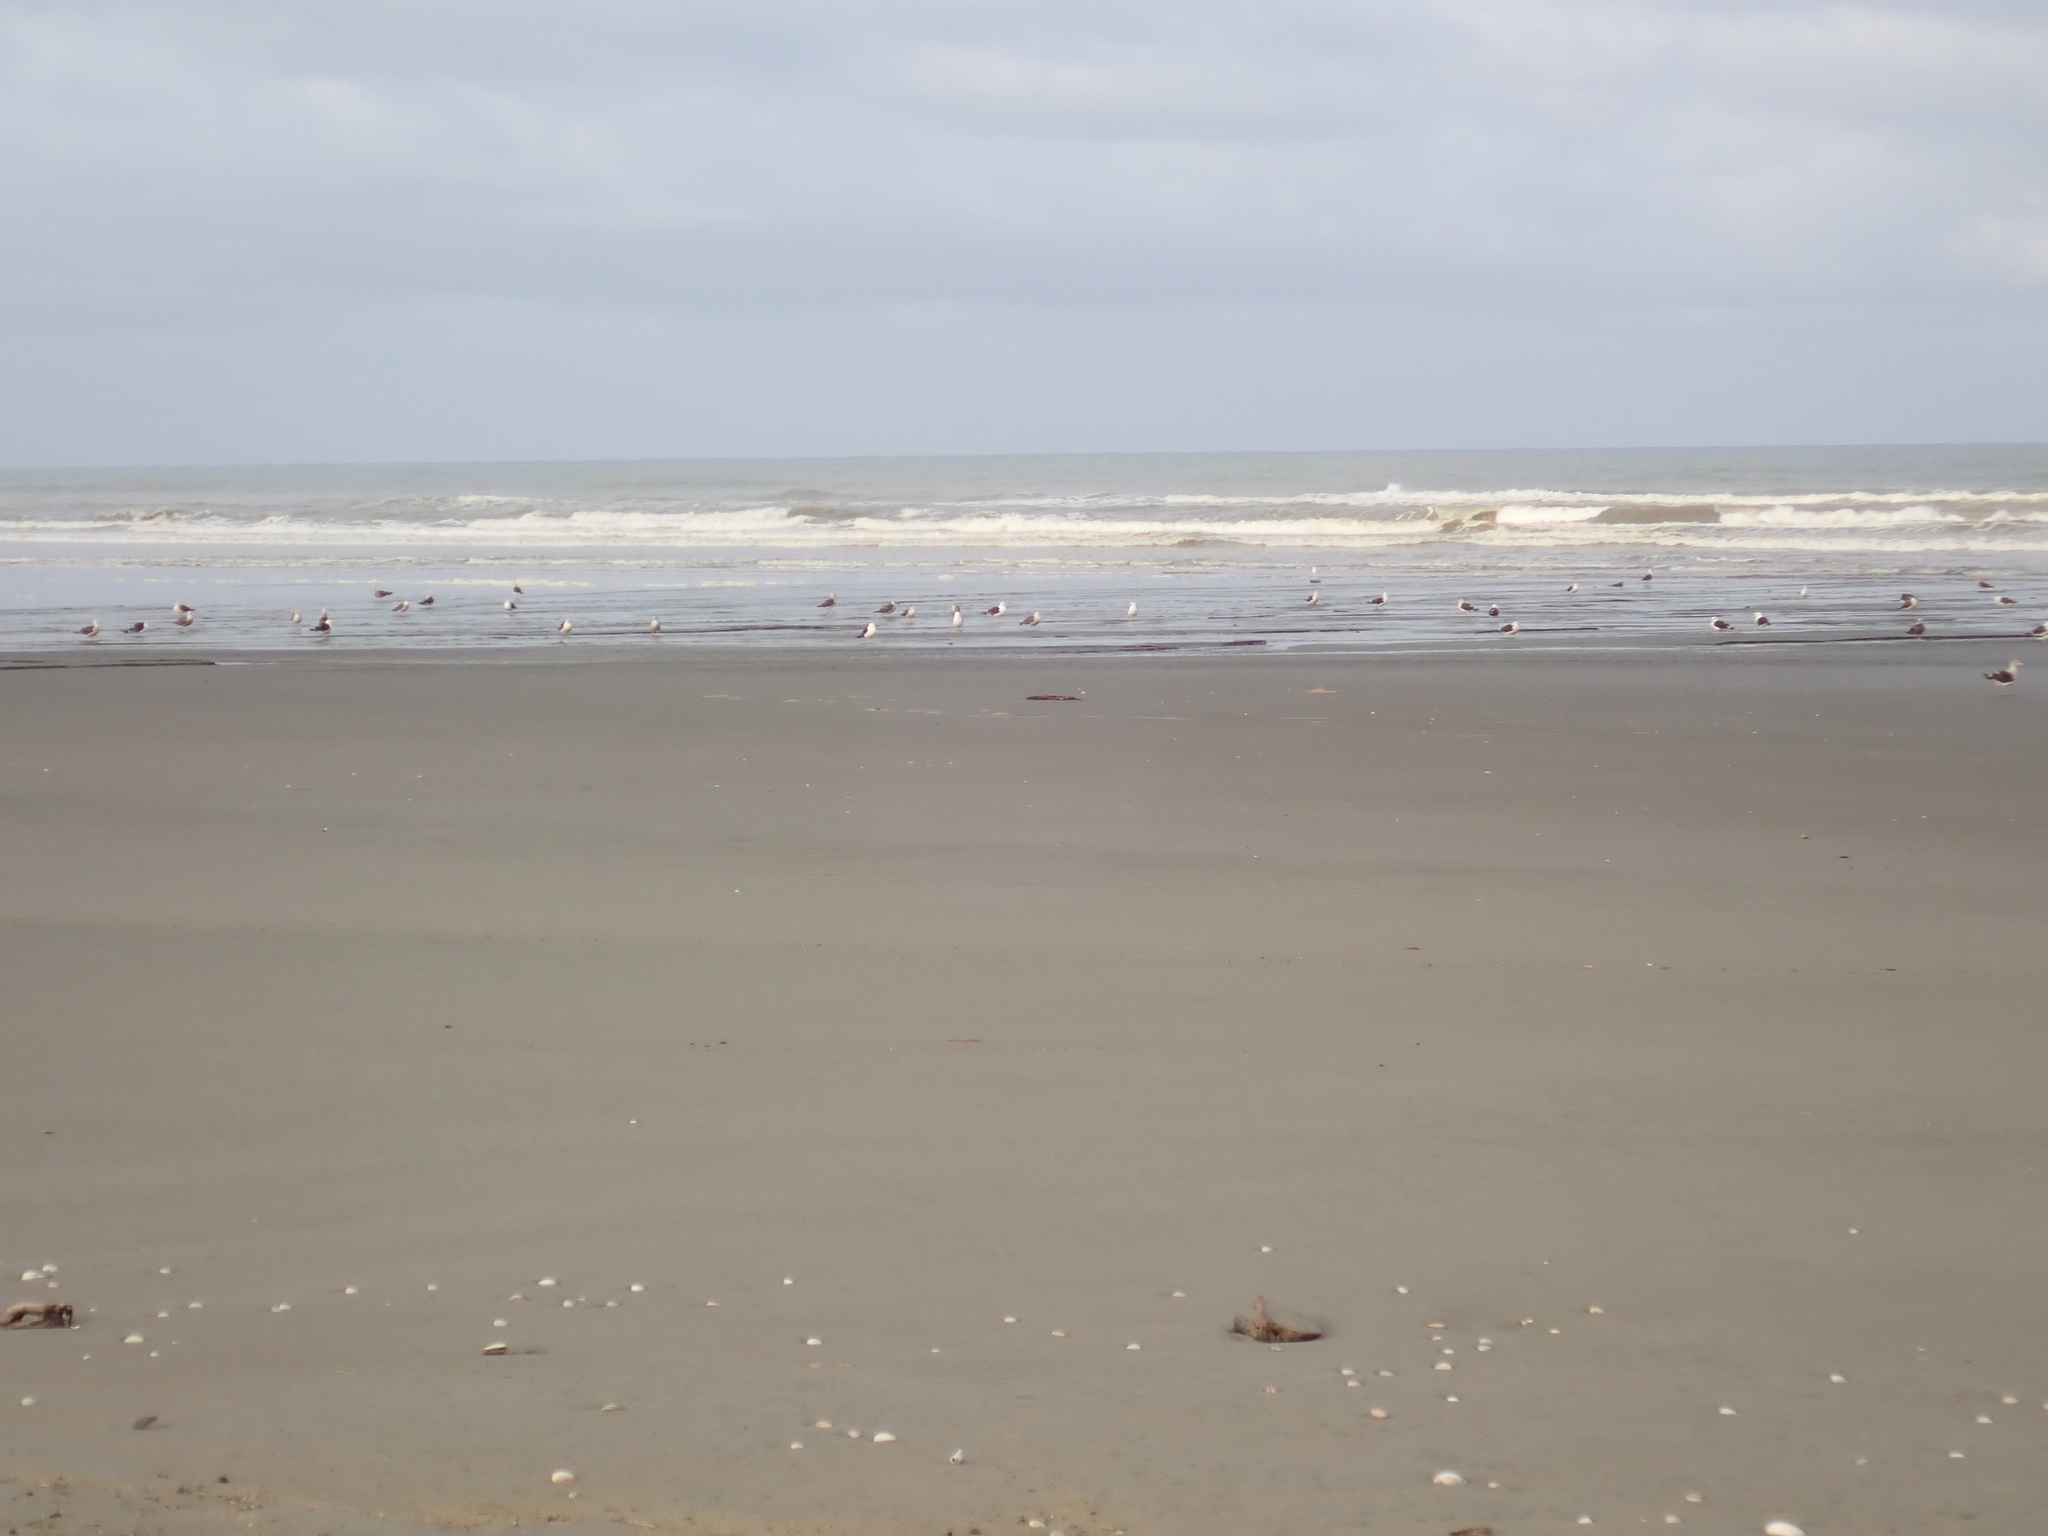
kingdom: Animalia
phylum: Chordata
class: Aves
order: Charadriiformes
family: Laridae
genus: Larus
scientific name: Larus dominicanus
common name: Kelp gull
